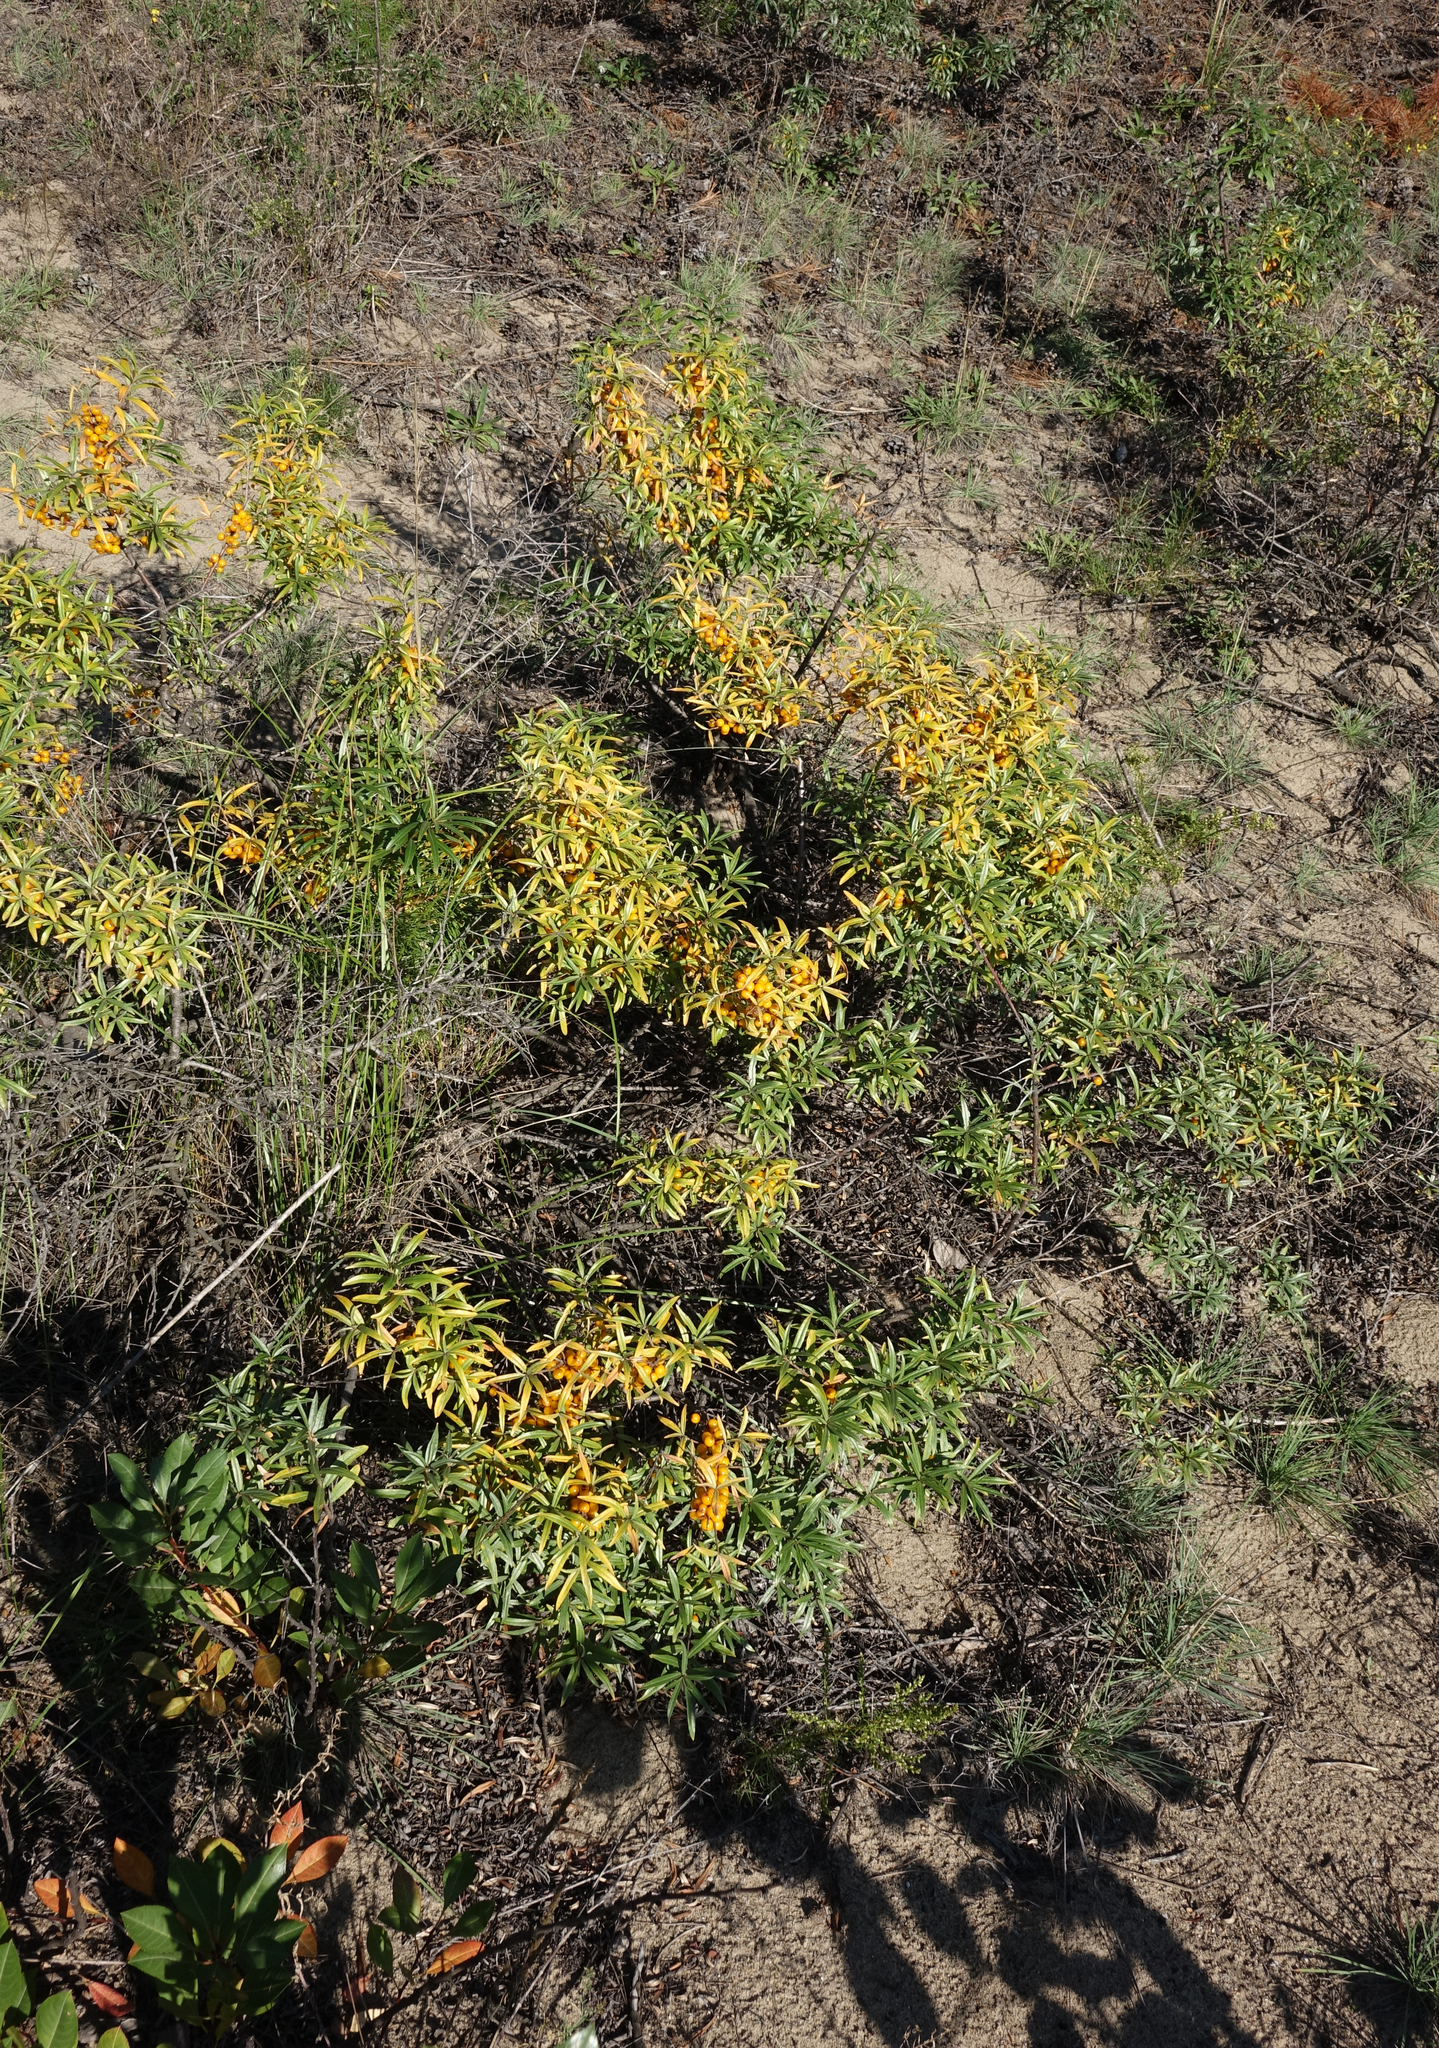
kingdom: Plantae
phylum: Tracheophyta
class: Magnoliopsida
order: Rosales
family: Elaeagnaceae
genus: Hippophae
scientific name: Hippophae rhamnoides
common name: Sea-buckthorn
